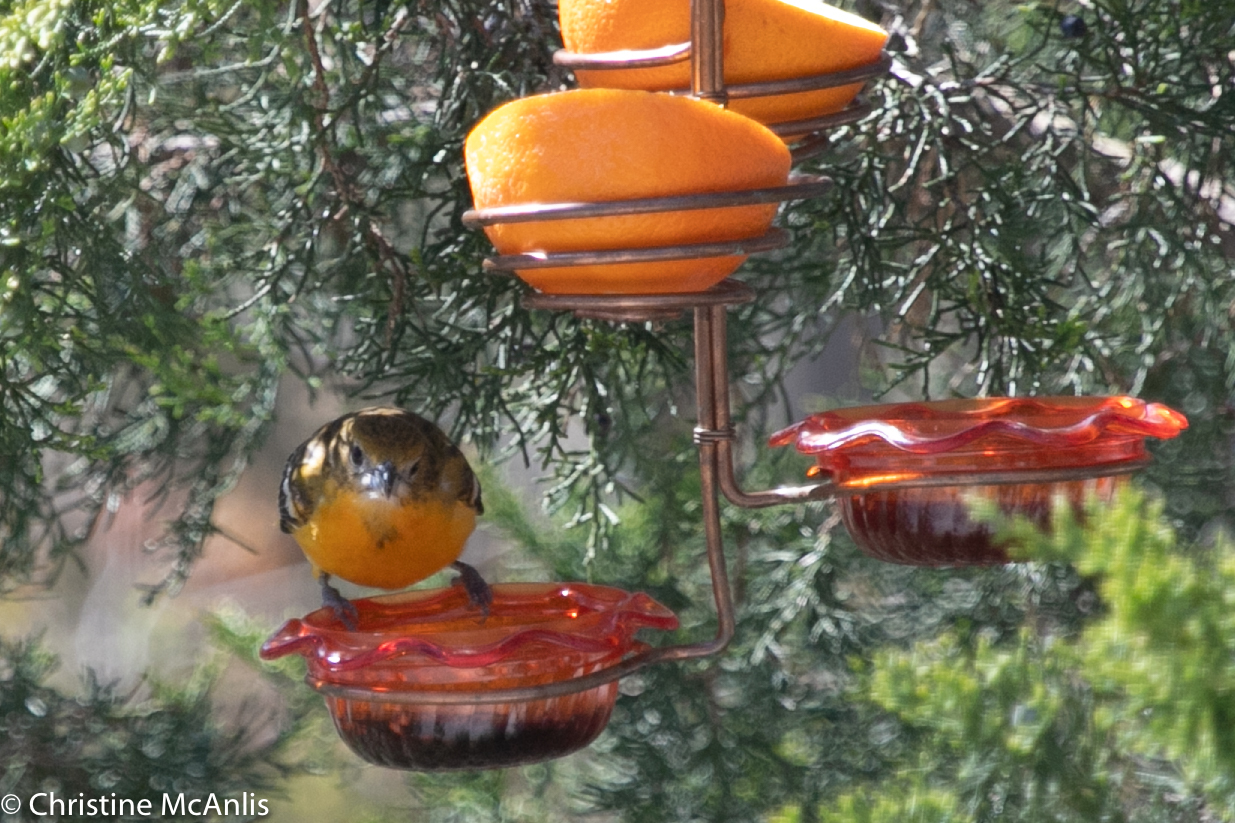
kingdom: Animalia
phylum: Chordata
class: Aves
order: Passeriformes
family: Icteridae
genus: Icterus
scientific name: Icterus galbula
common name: Baltimore oriole
